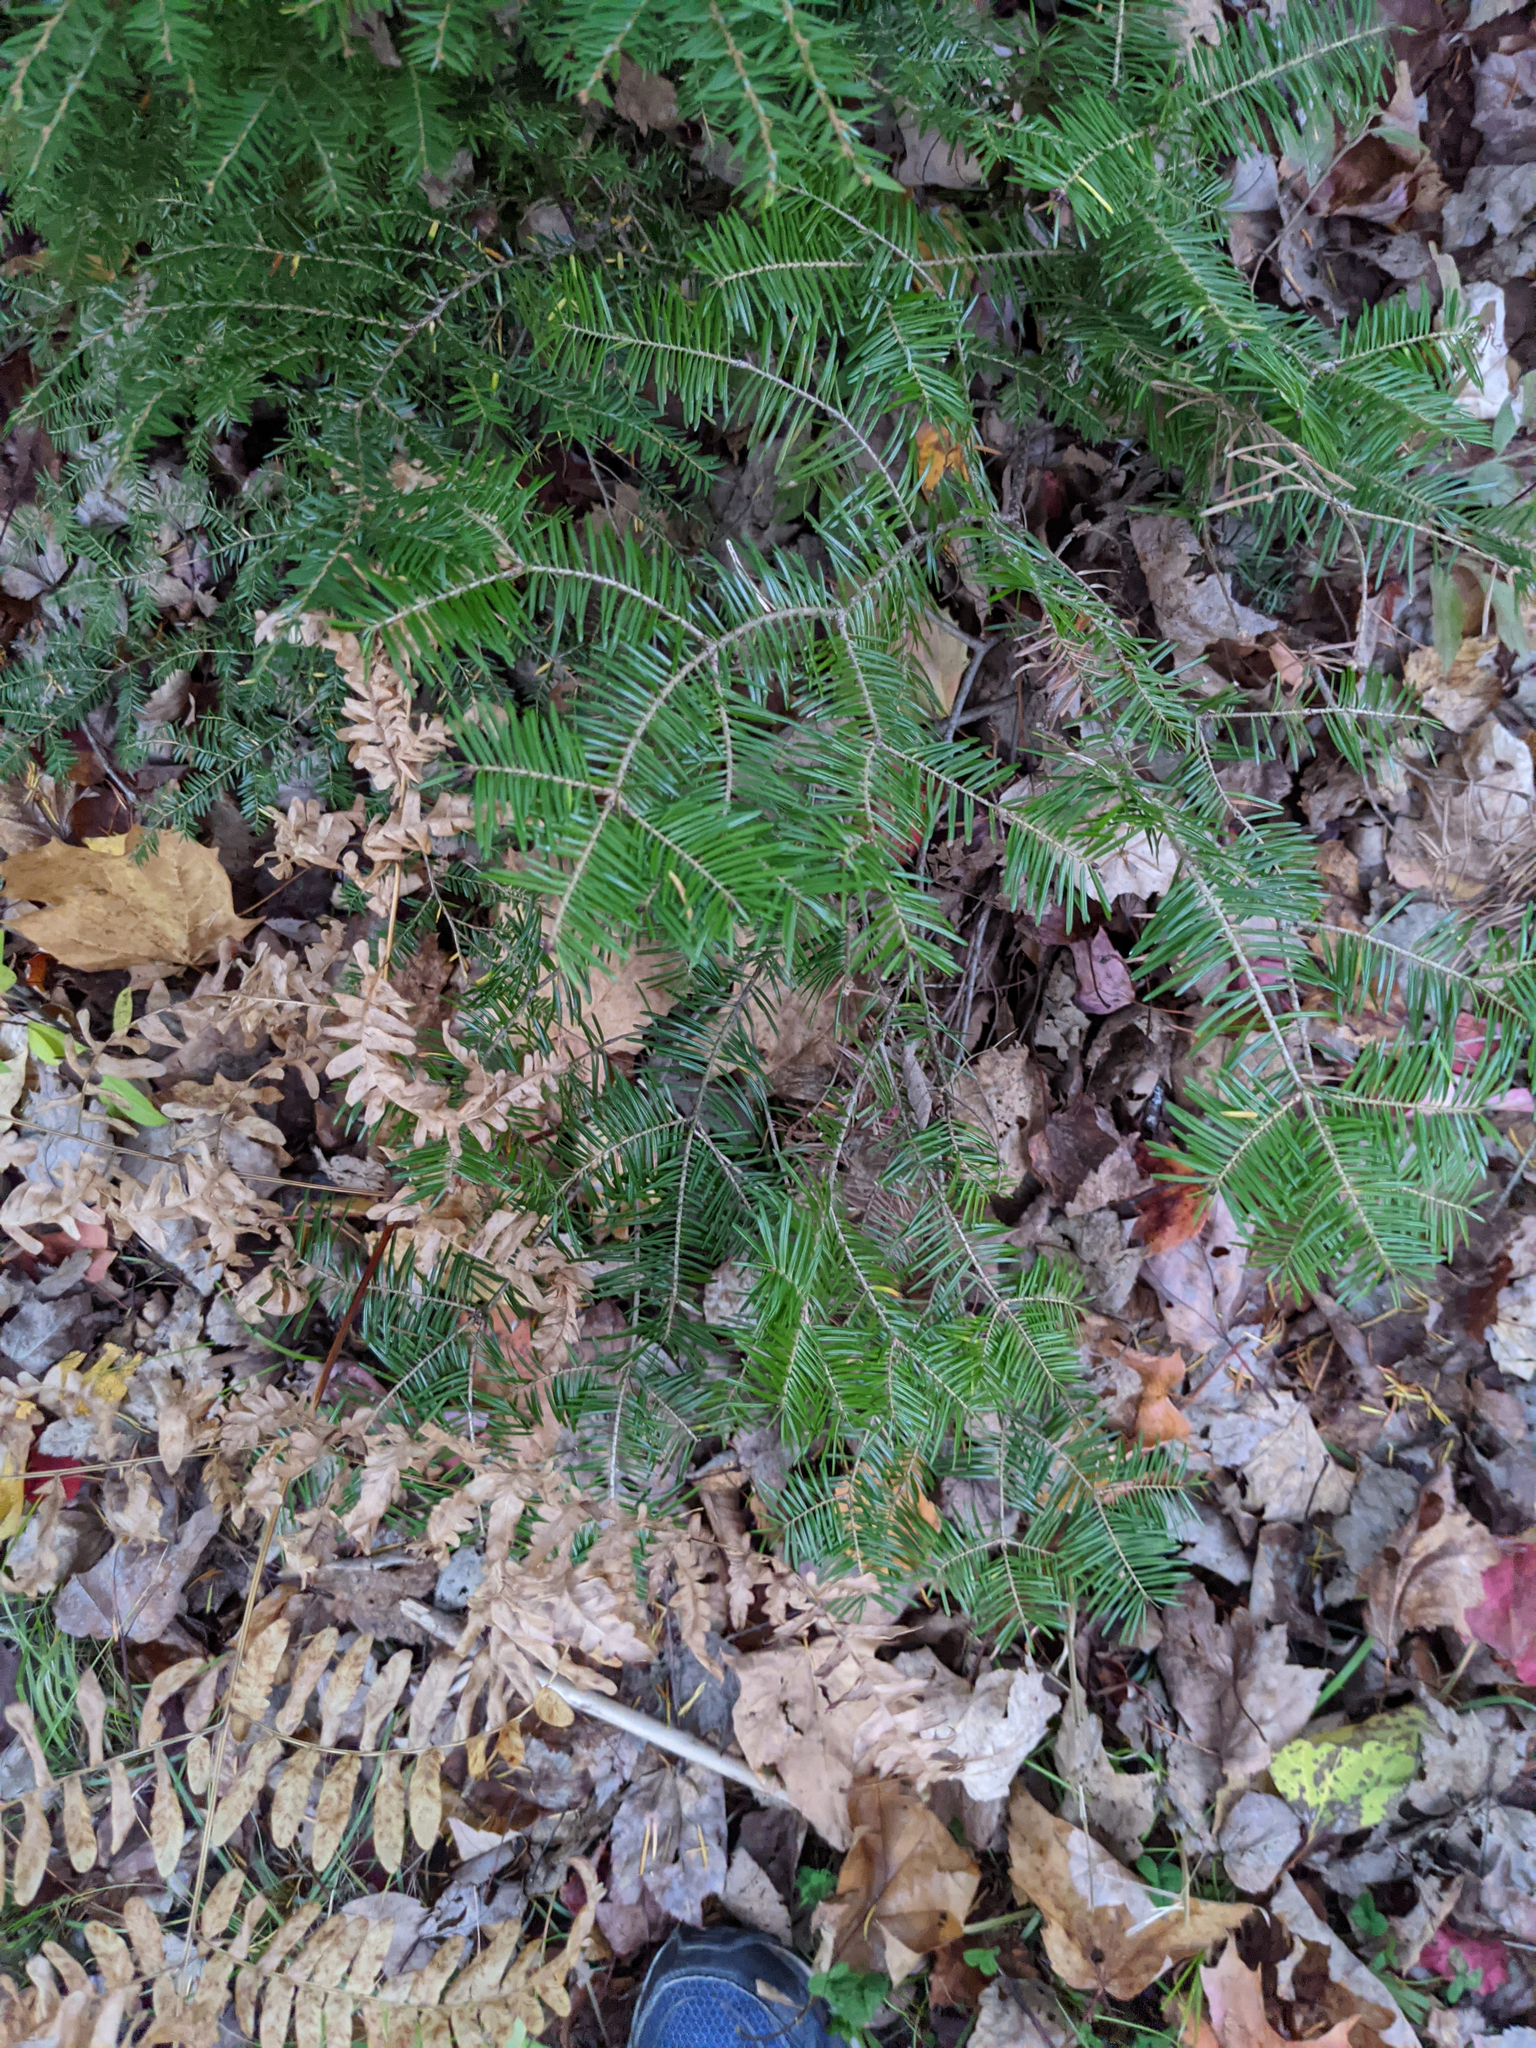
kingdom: Plantae
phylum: Tracheophyta
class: Pinopsida
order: Pinales
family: Pinaceae
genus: Abies
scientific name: Abies balsamea
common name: Balsam fir
